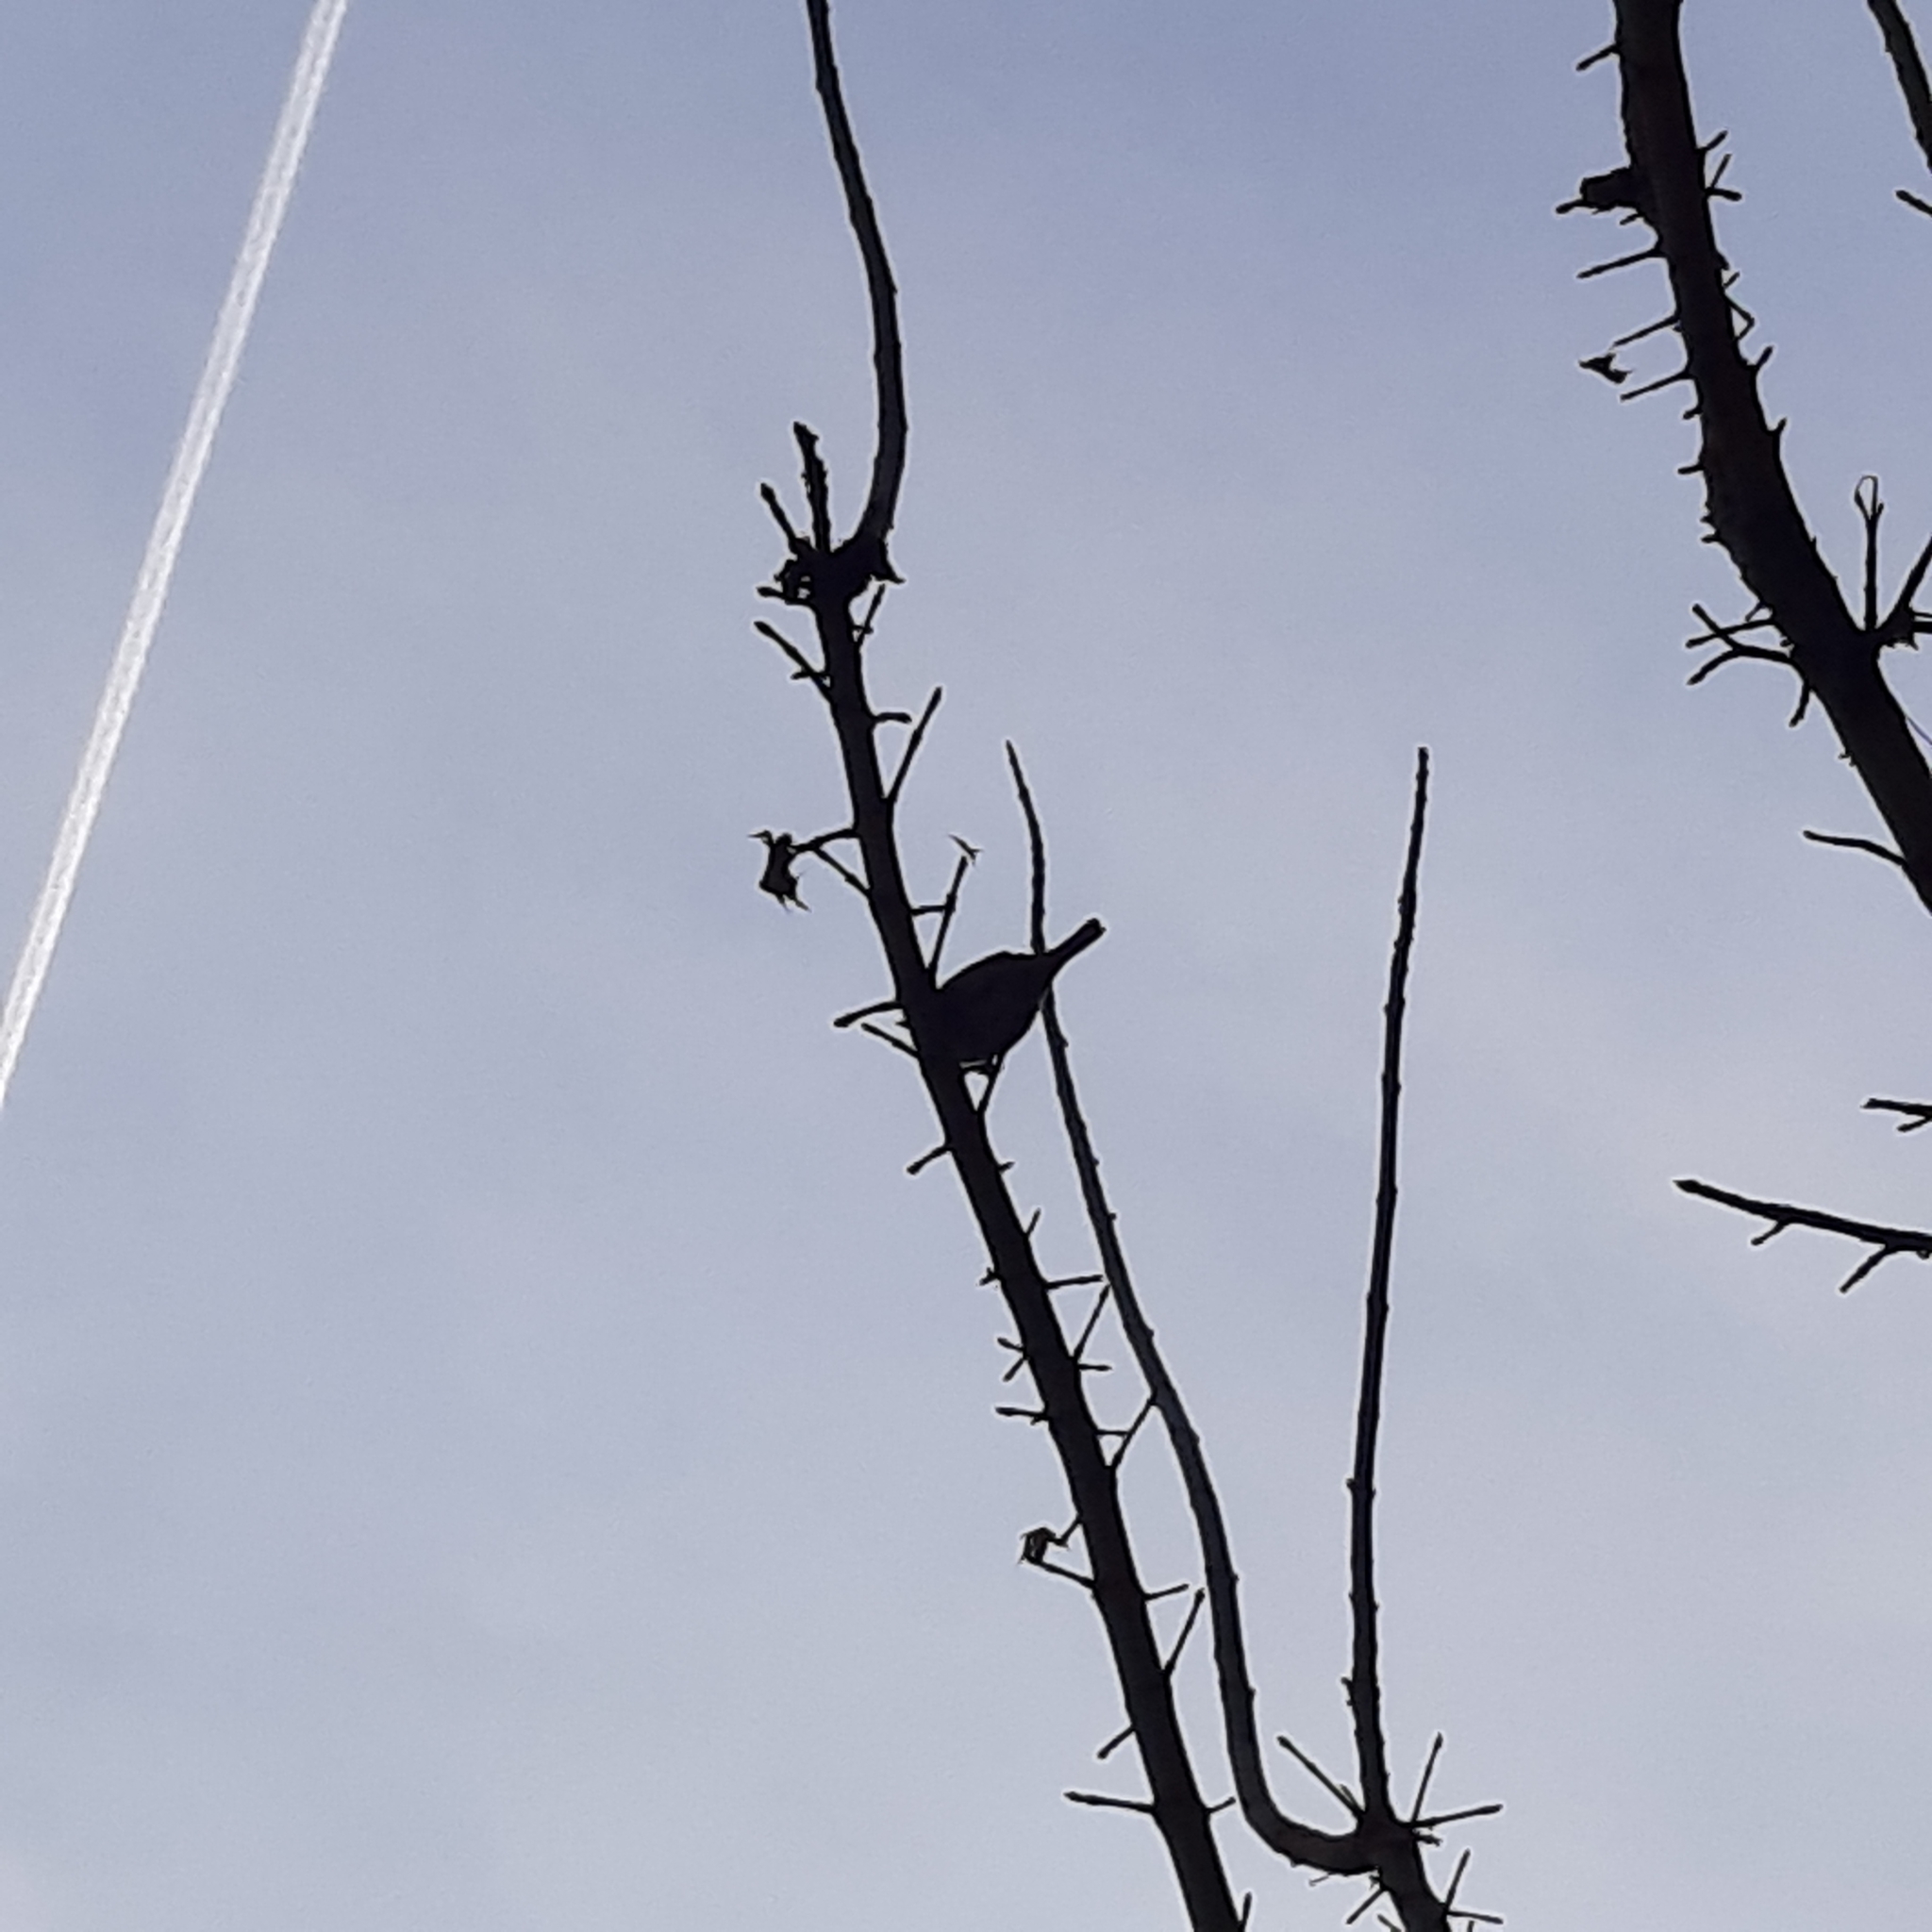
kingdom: Animalia
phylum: Chordata
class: Aves
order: Passeriformes
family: Passeridae
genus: Passer
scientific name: Passer domesticus
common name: House sparrow
